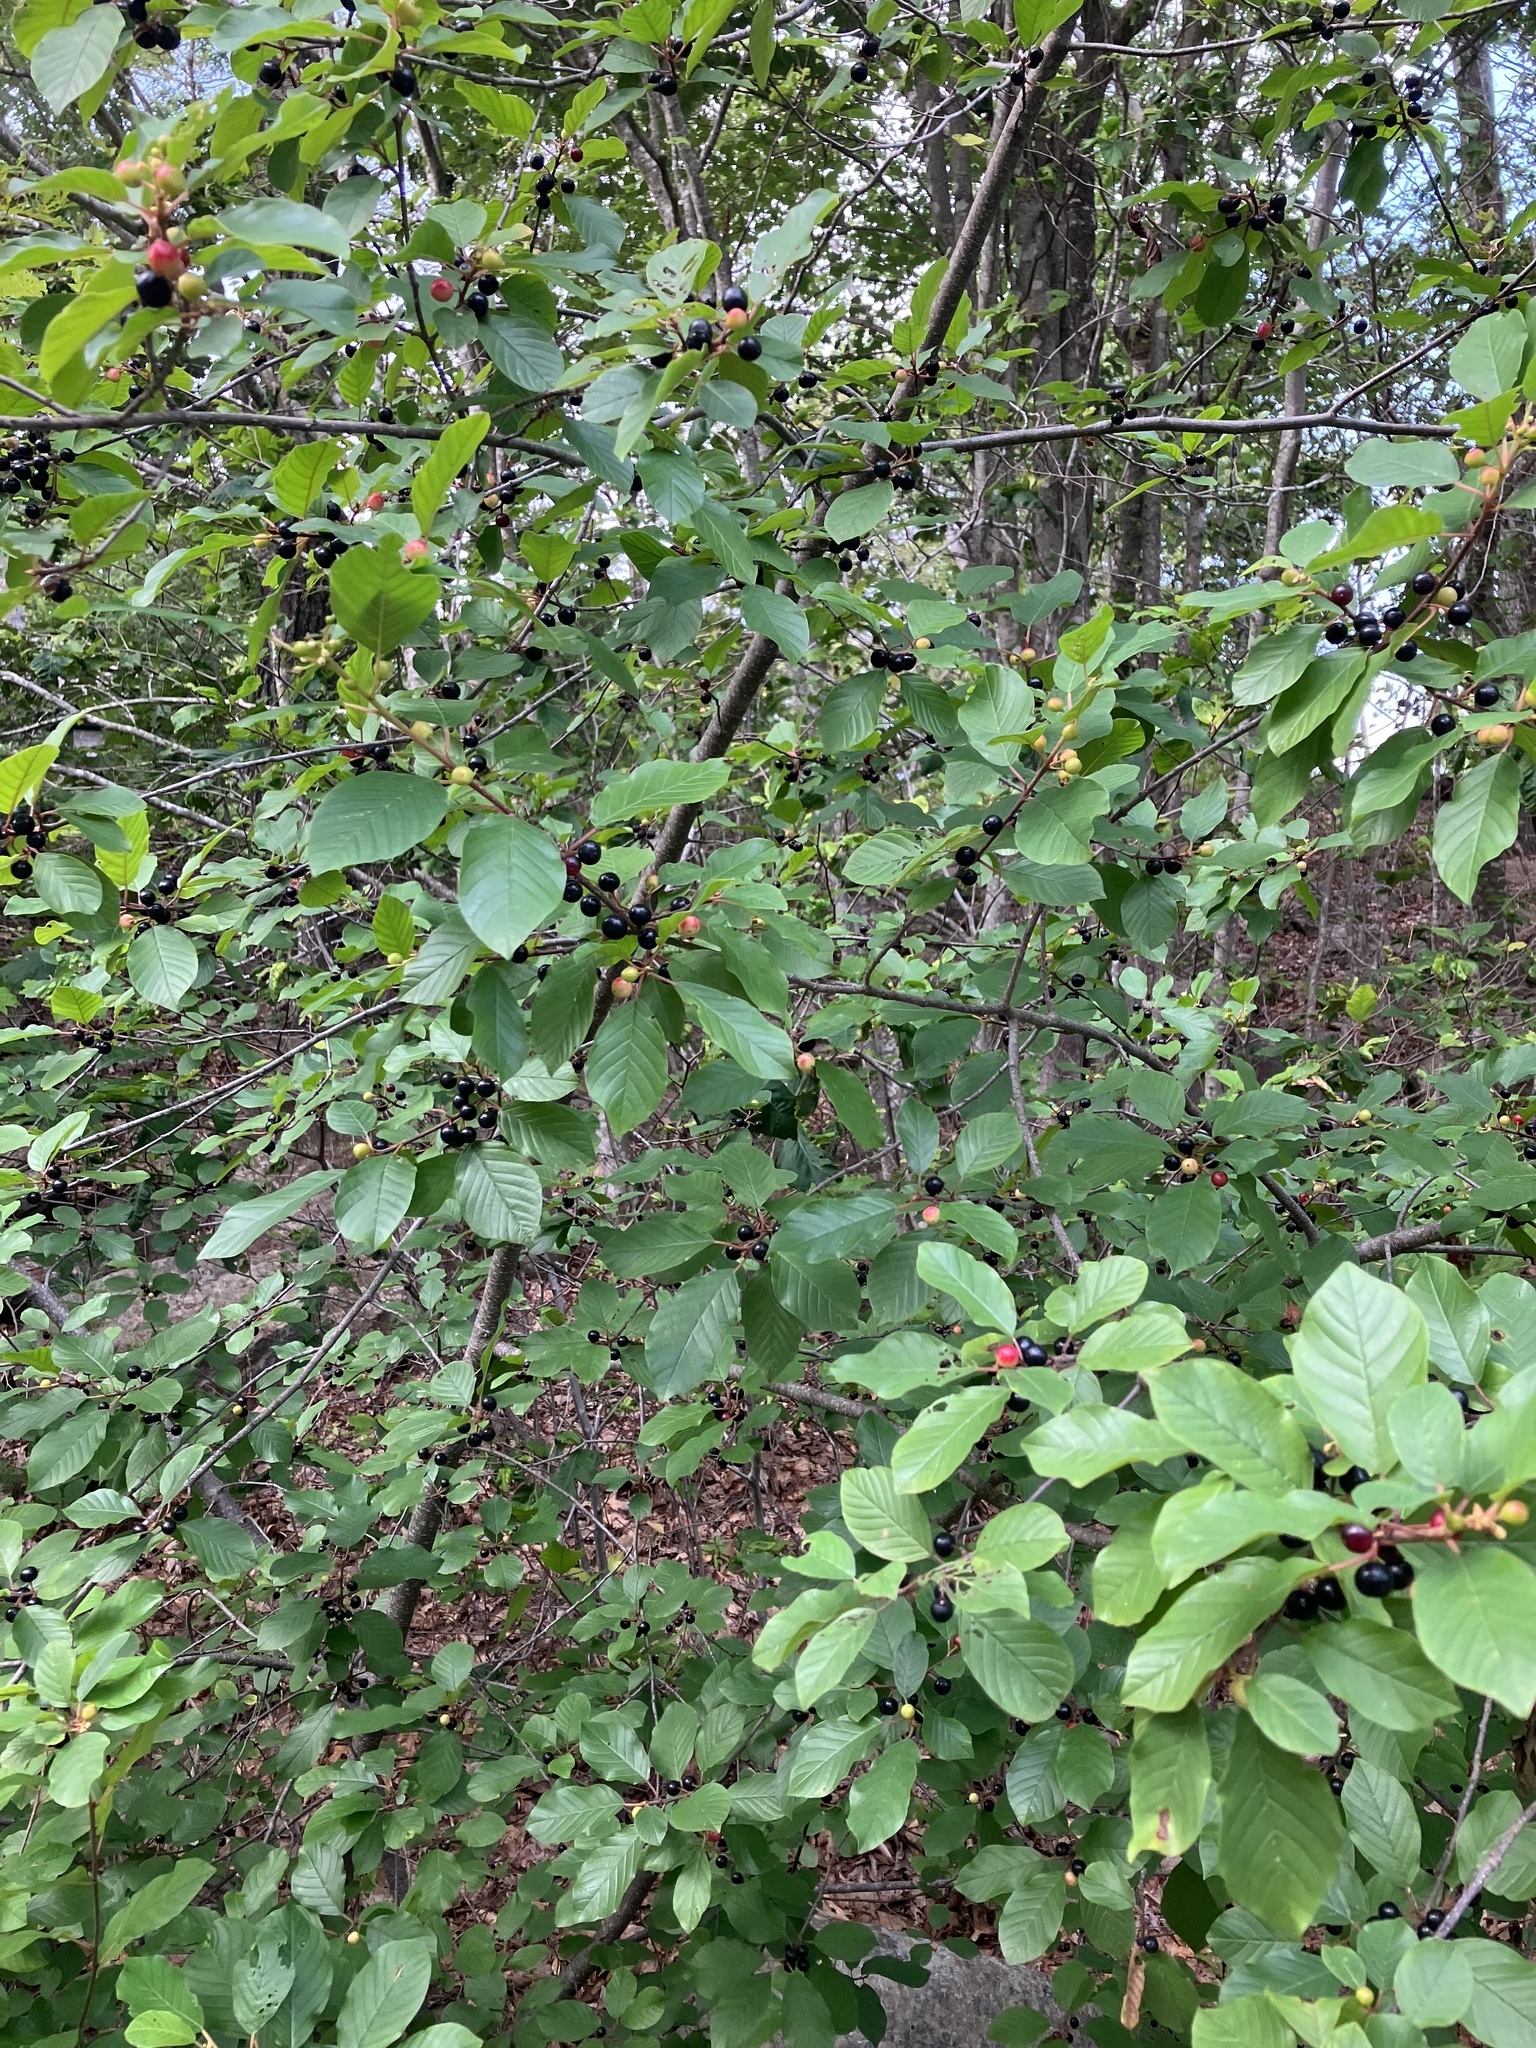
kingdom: Plantae
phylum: Tracheophyta
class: Magnoliopsida
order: Rosales
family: Rhamnaceae
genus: Frangula
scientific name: Frangula alnus
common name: Alder buckthorn
